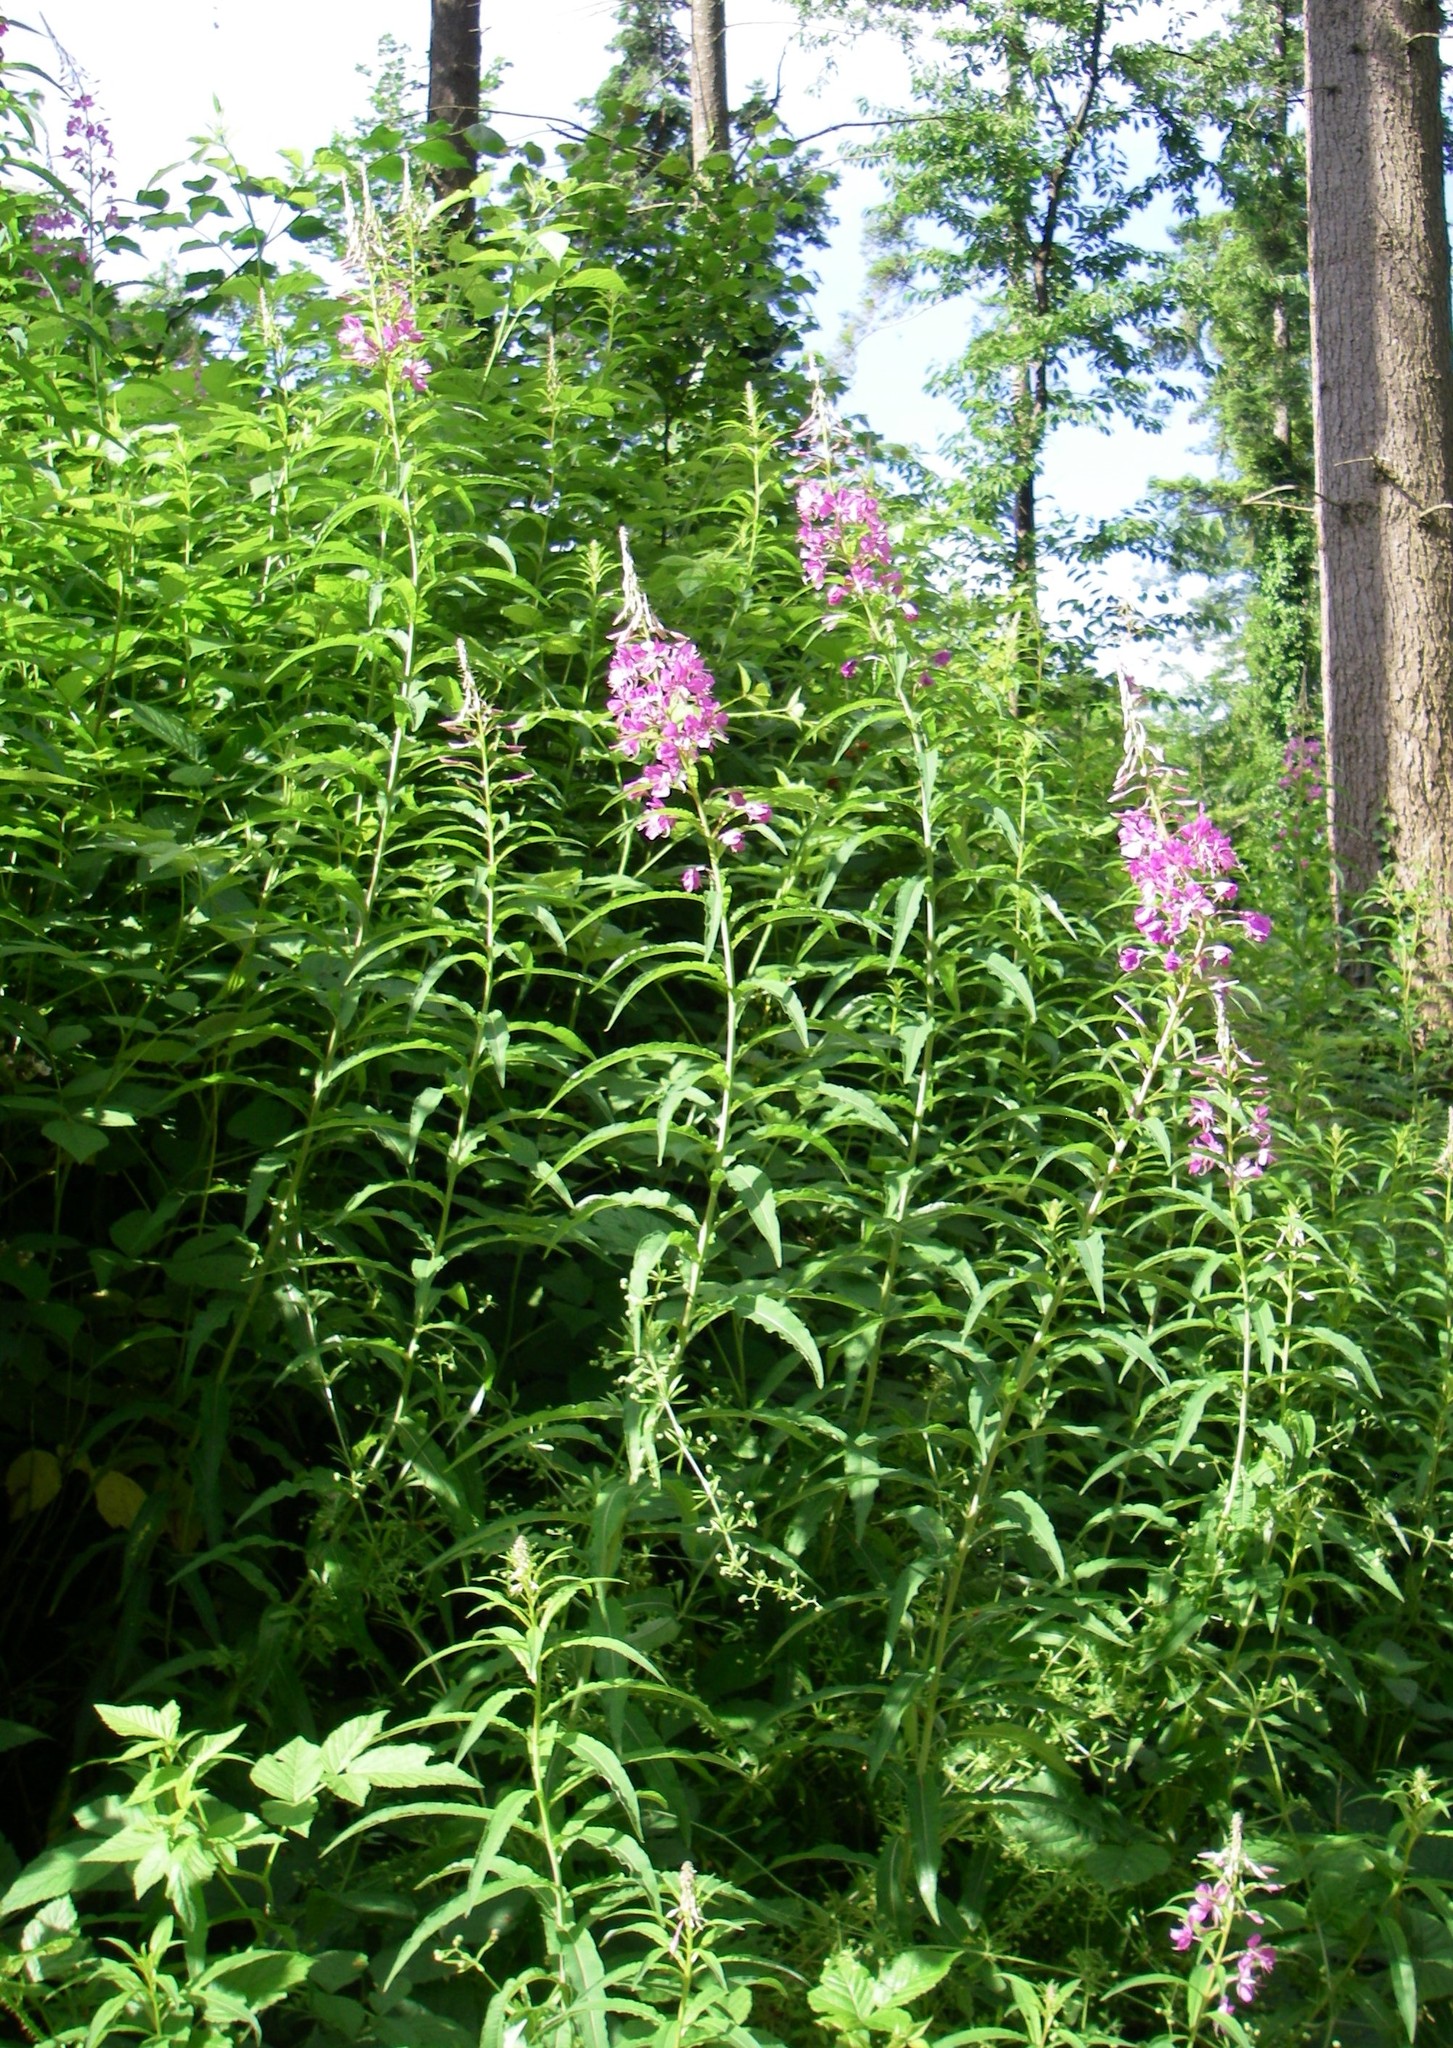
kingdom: Plantae
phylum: Tracheophyta
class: Magnoliopsida
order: Myrtales
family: Onagraceae
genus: Chamaenerion
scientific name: Chamaenerion angustifolium
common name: Fireweed
